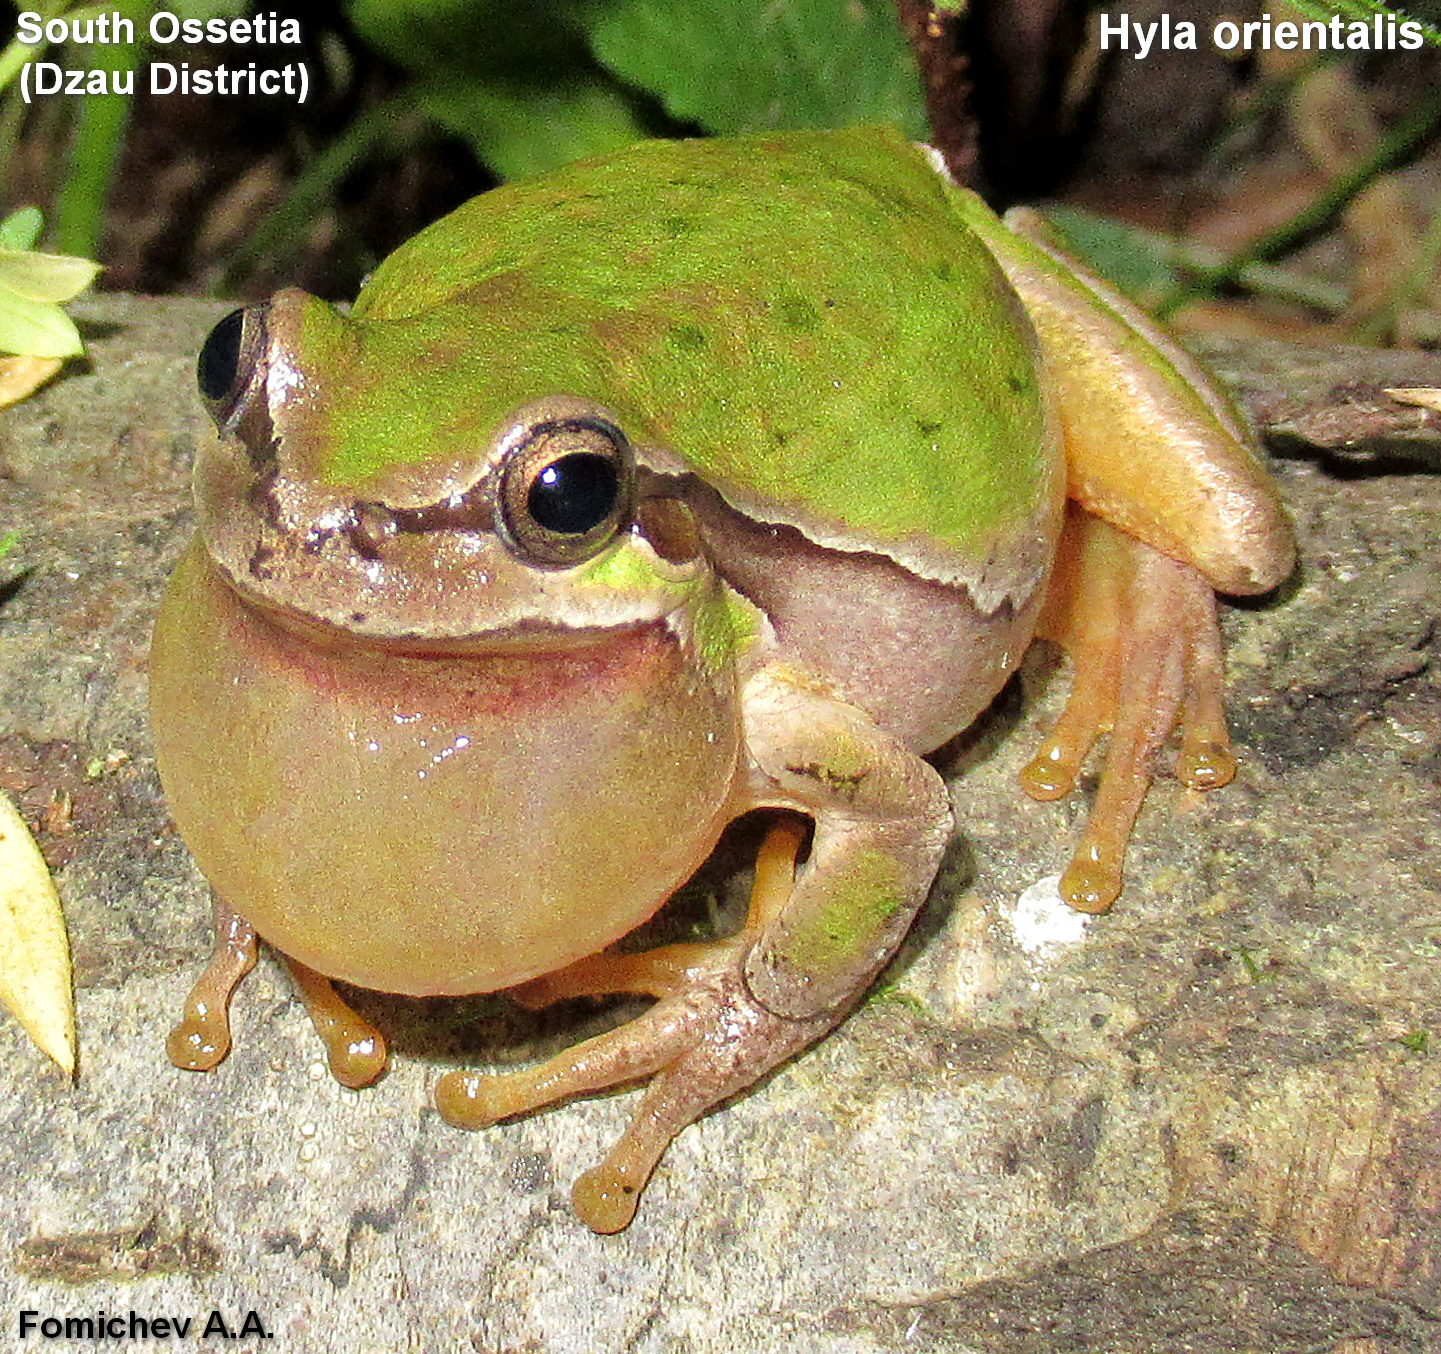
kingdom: Animalia
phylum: Chordata
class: Amphibia
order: Anura
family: Hylidae
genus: Hyla
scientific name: Hyla orientalis
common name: Caucasian treefrog
